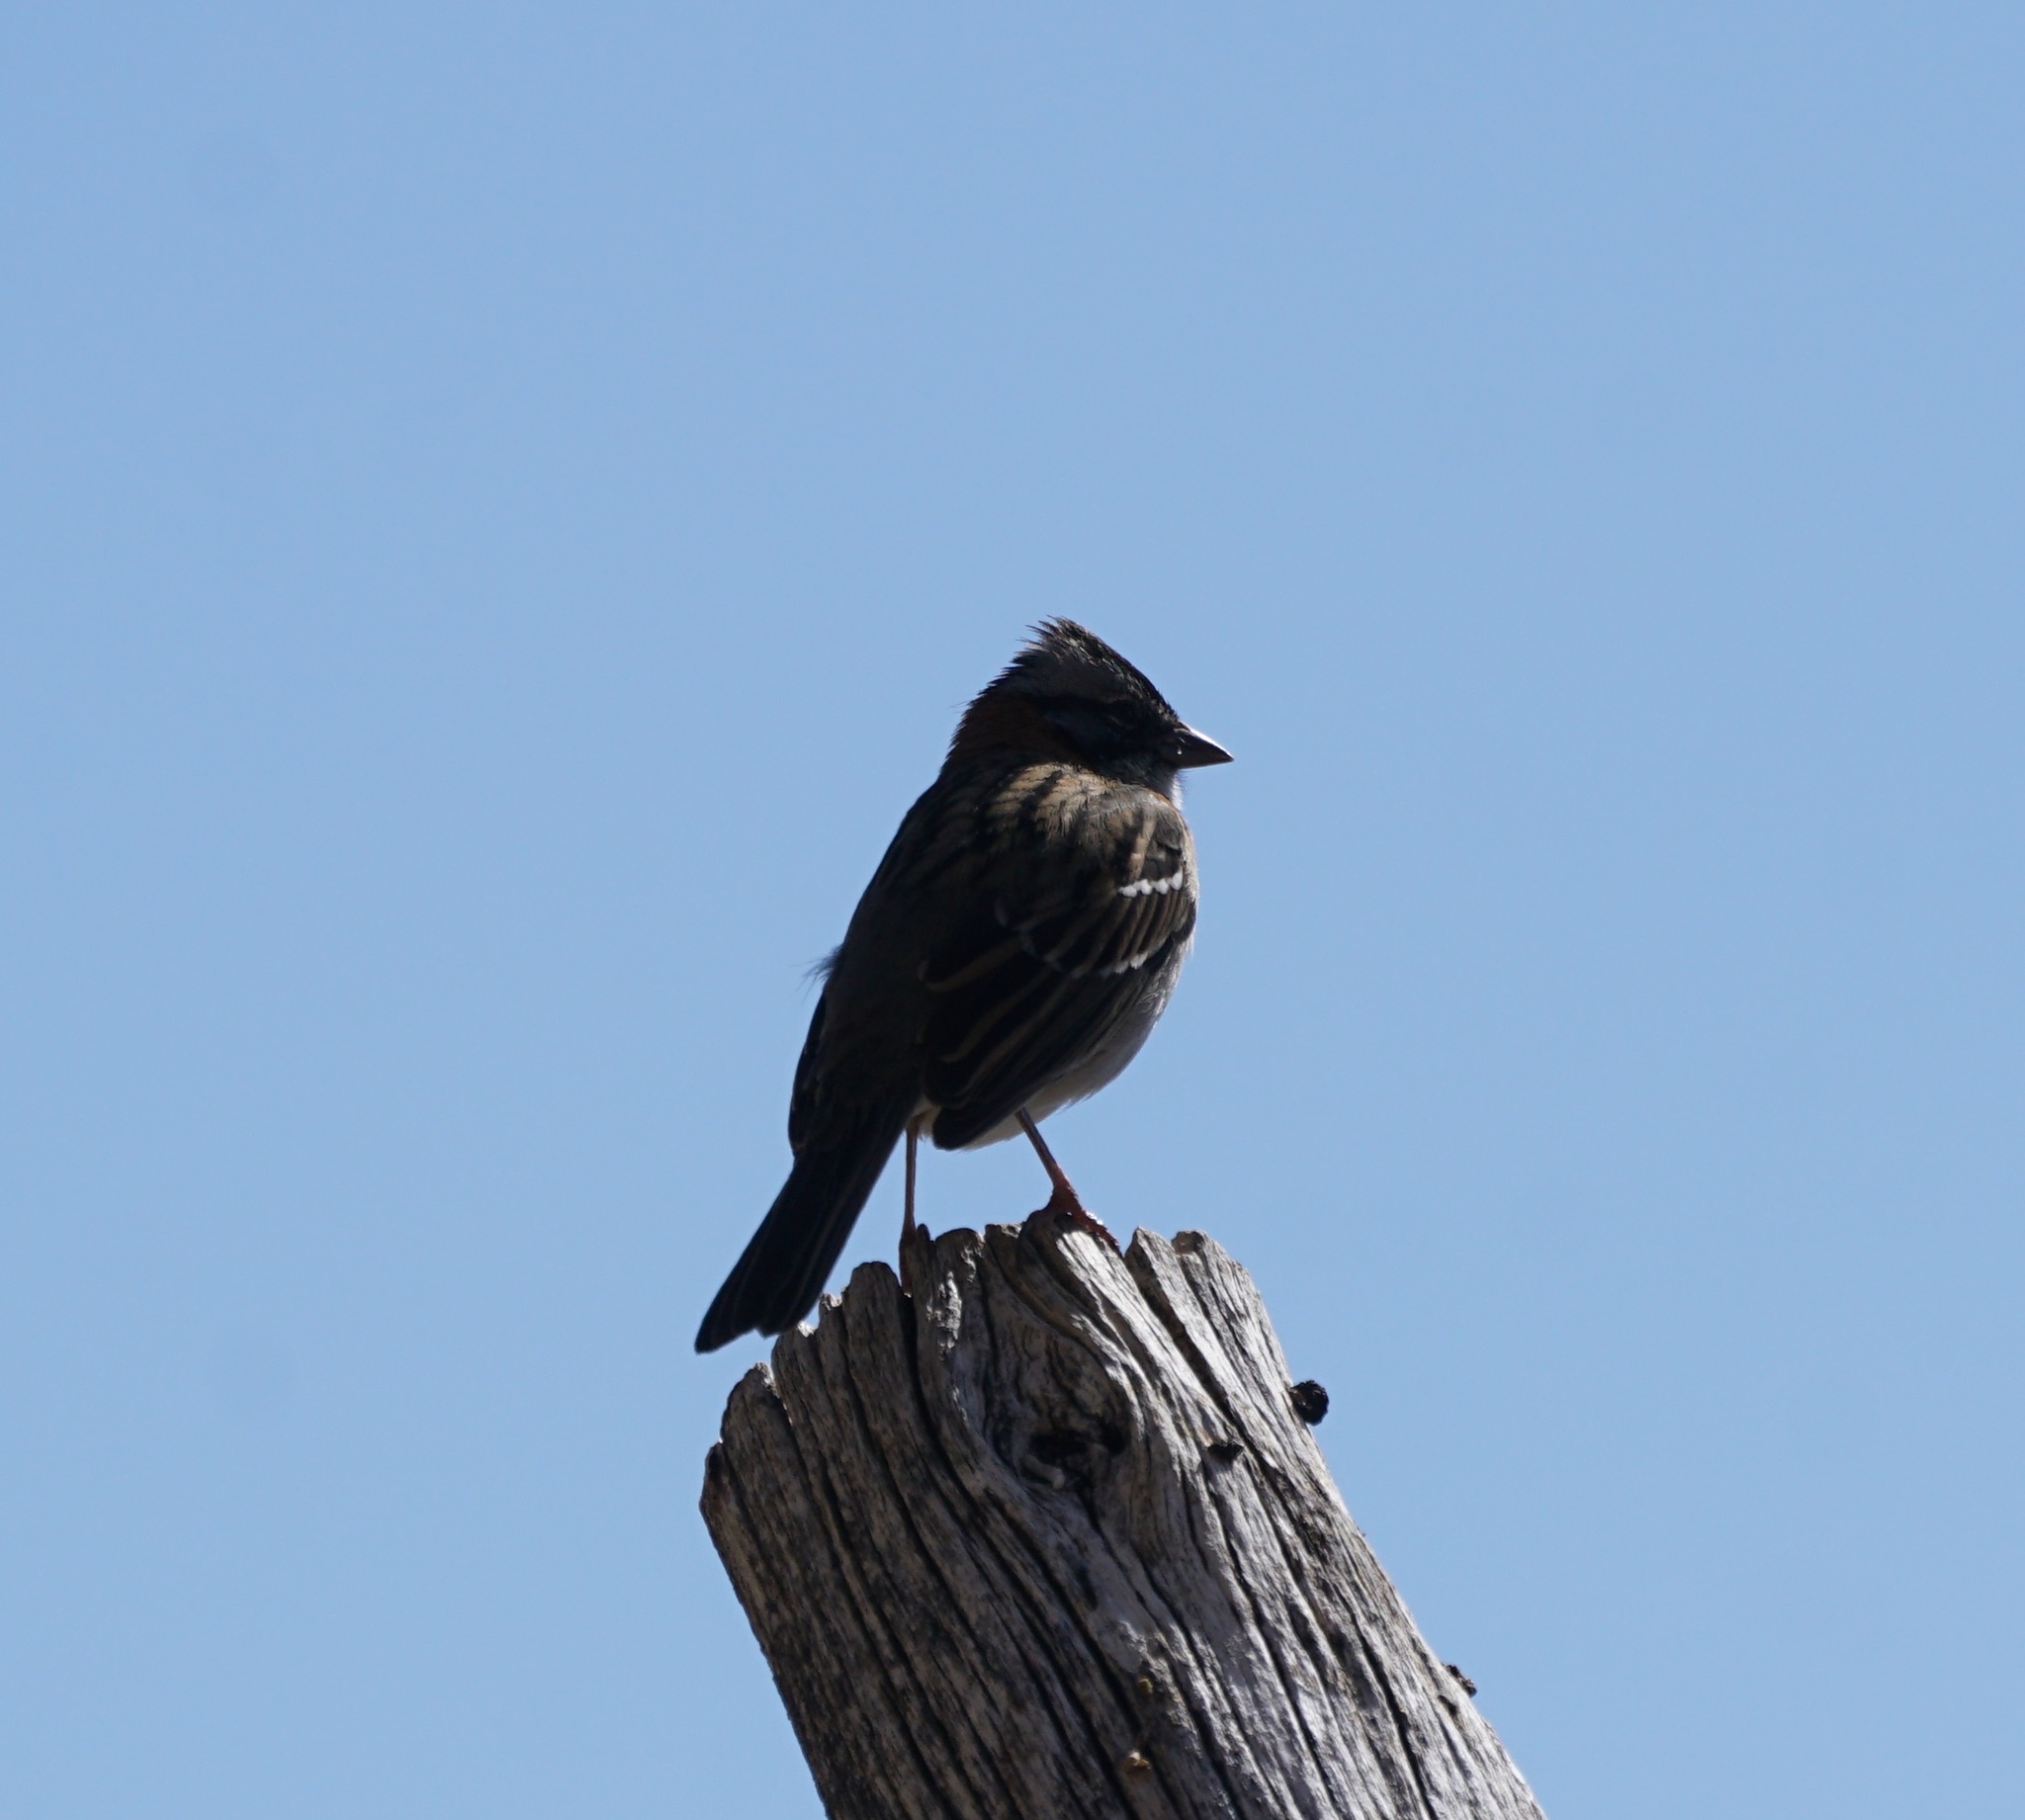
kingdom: Animalia
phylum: Chordata
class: Aves
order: Passeriformes
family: Passerellidae
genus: Zonotrichia
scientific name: Zonotrichia capensis
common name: Rufous-collared sparrow
